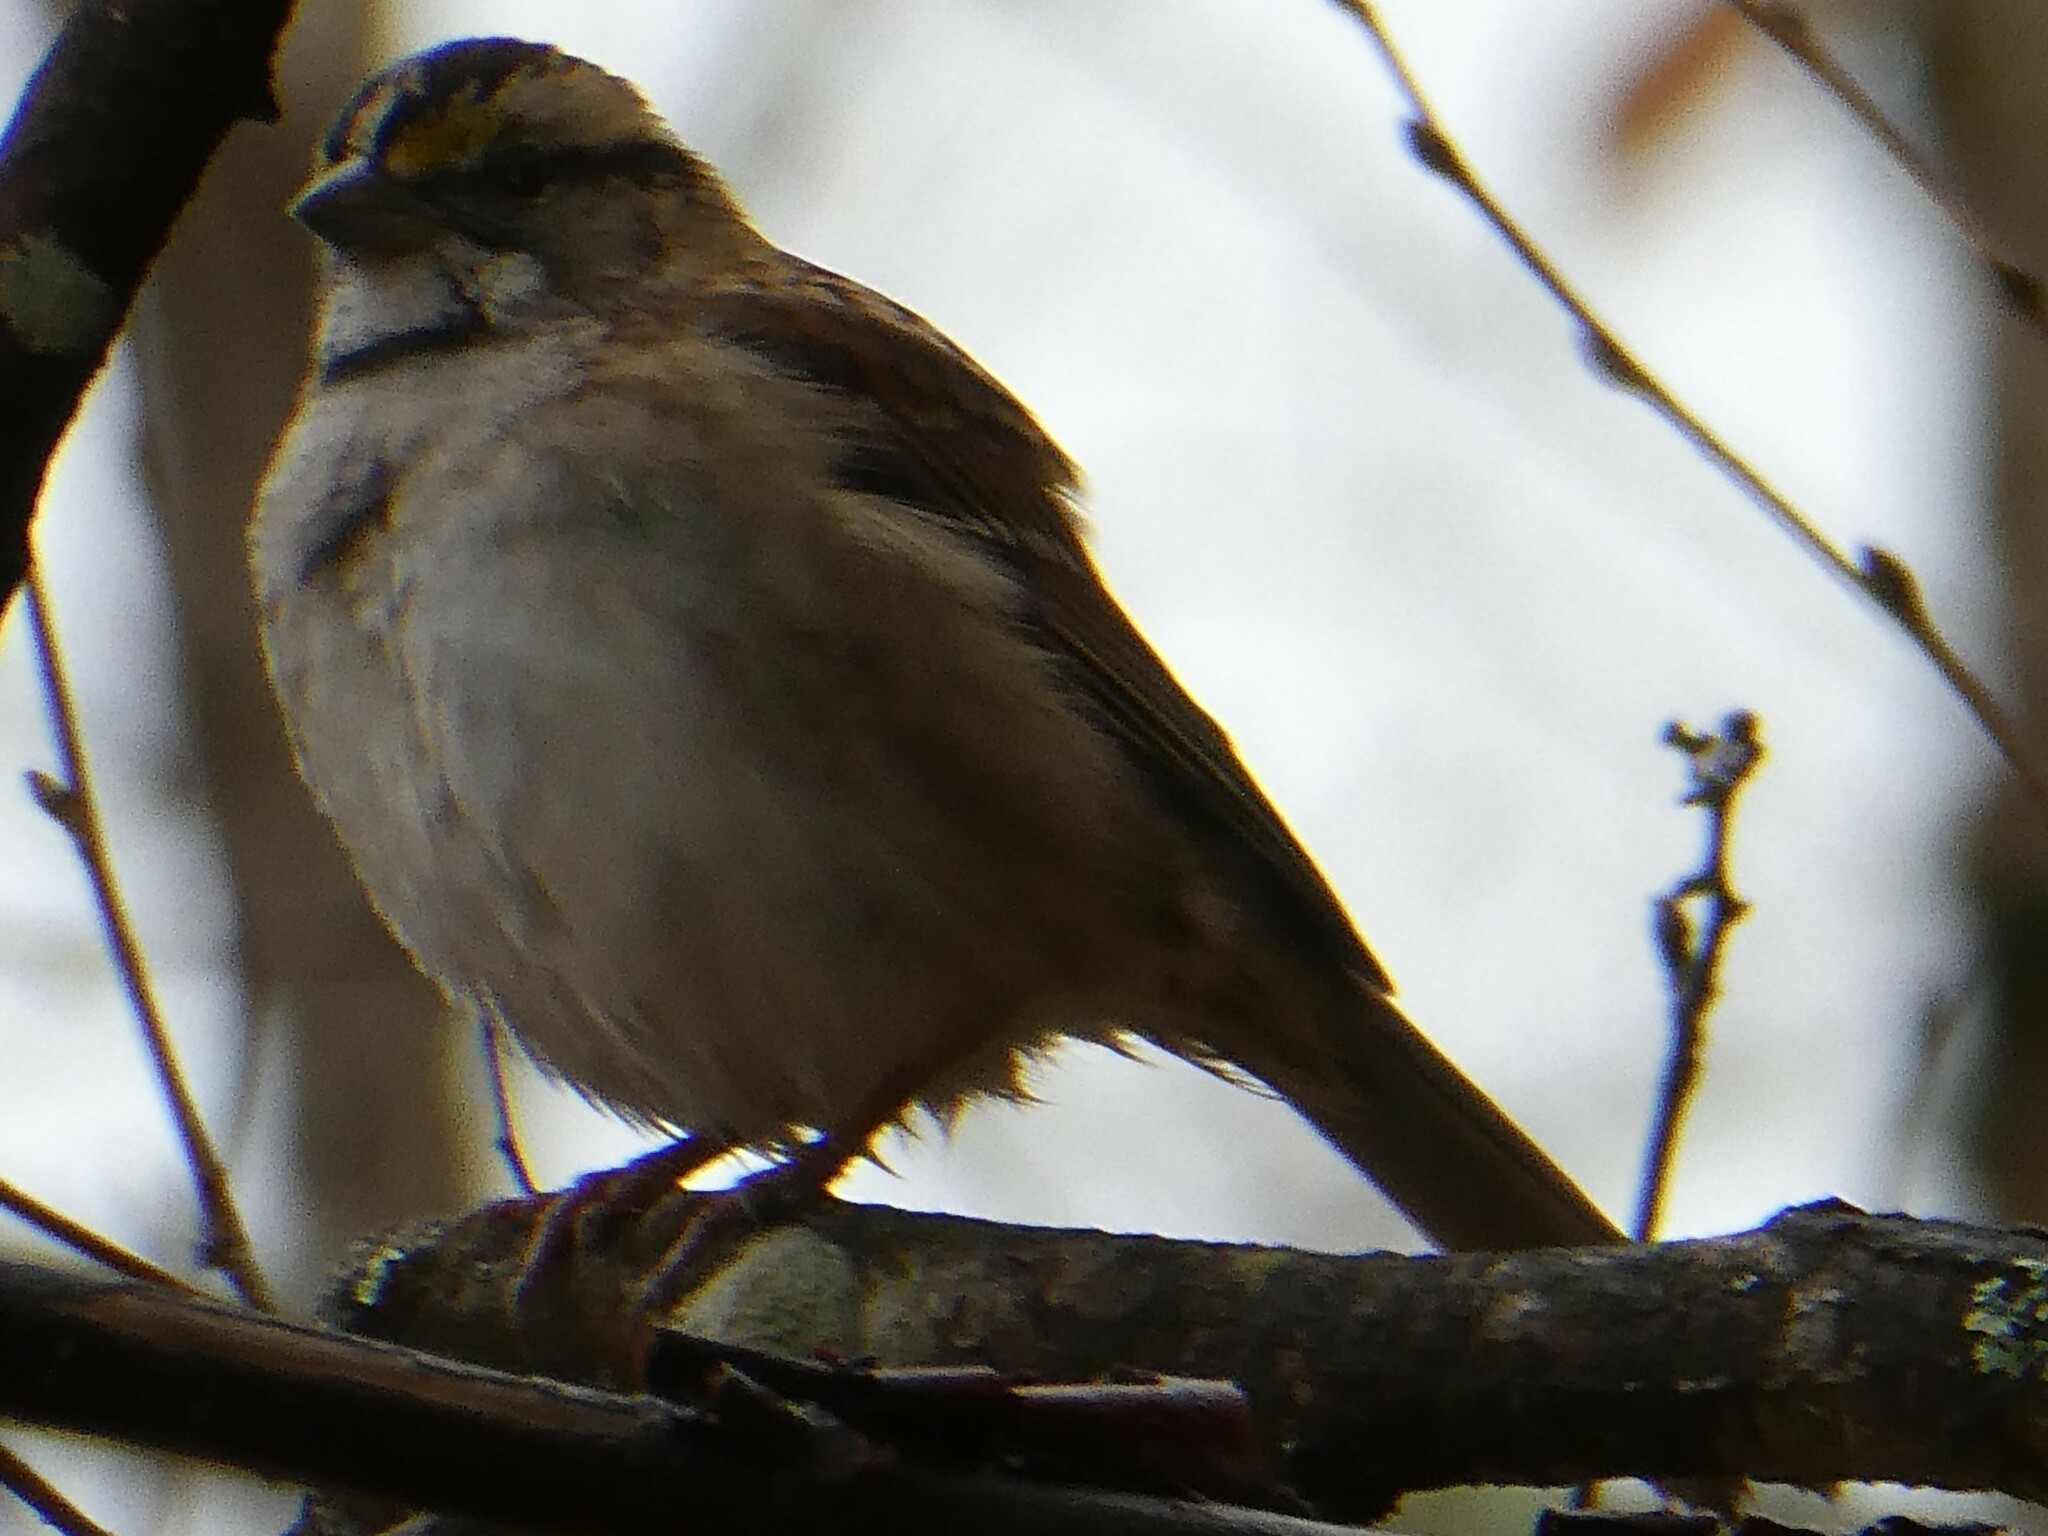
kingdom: Animalia
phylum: Chordata
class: Aves
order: Passeriformes
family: Passerellidae
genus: Zonotrichia
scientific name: Zonotrichia albicollis
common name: White-throated sparrow
